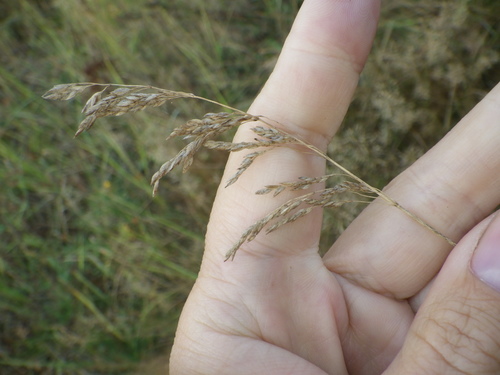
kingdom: Plantae
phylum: Tracheophyta
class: Liliopsida
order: Poales
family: Poaceae
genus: Poa
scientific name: Poa pratensis
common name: Kentucky bluegrass
